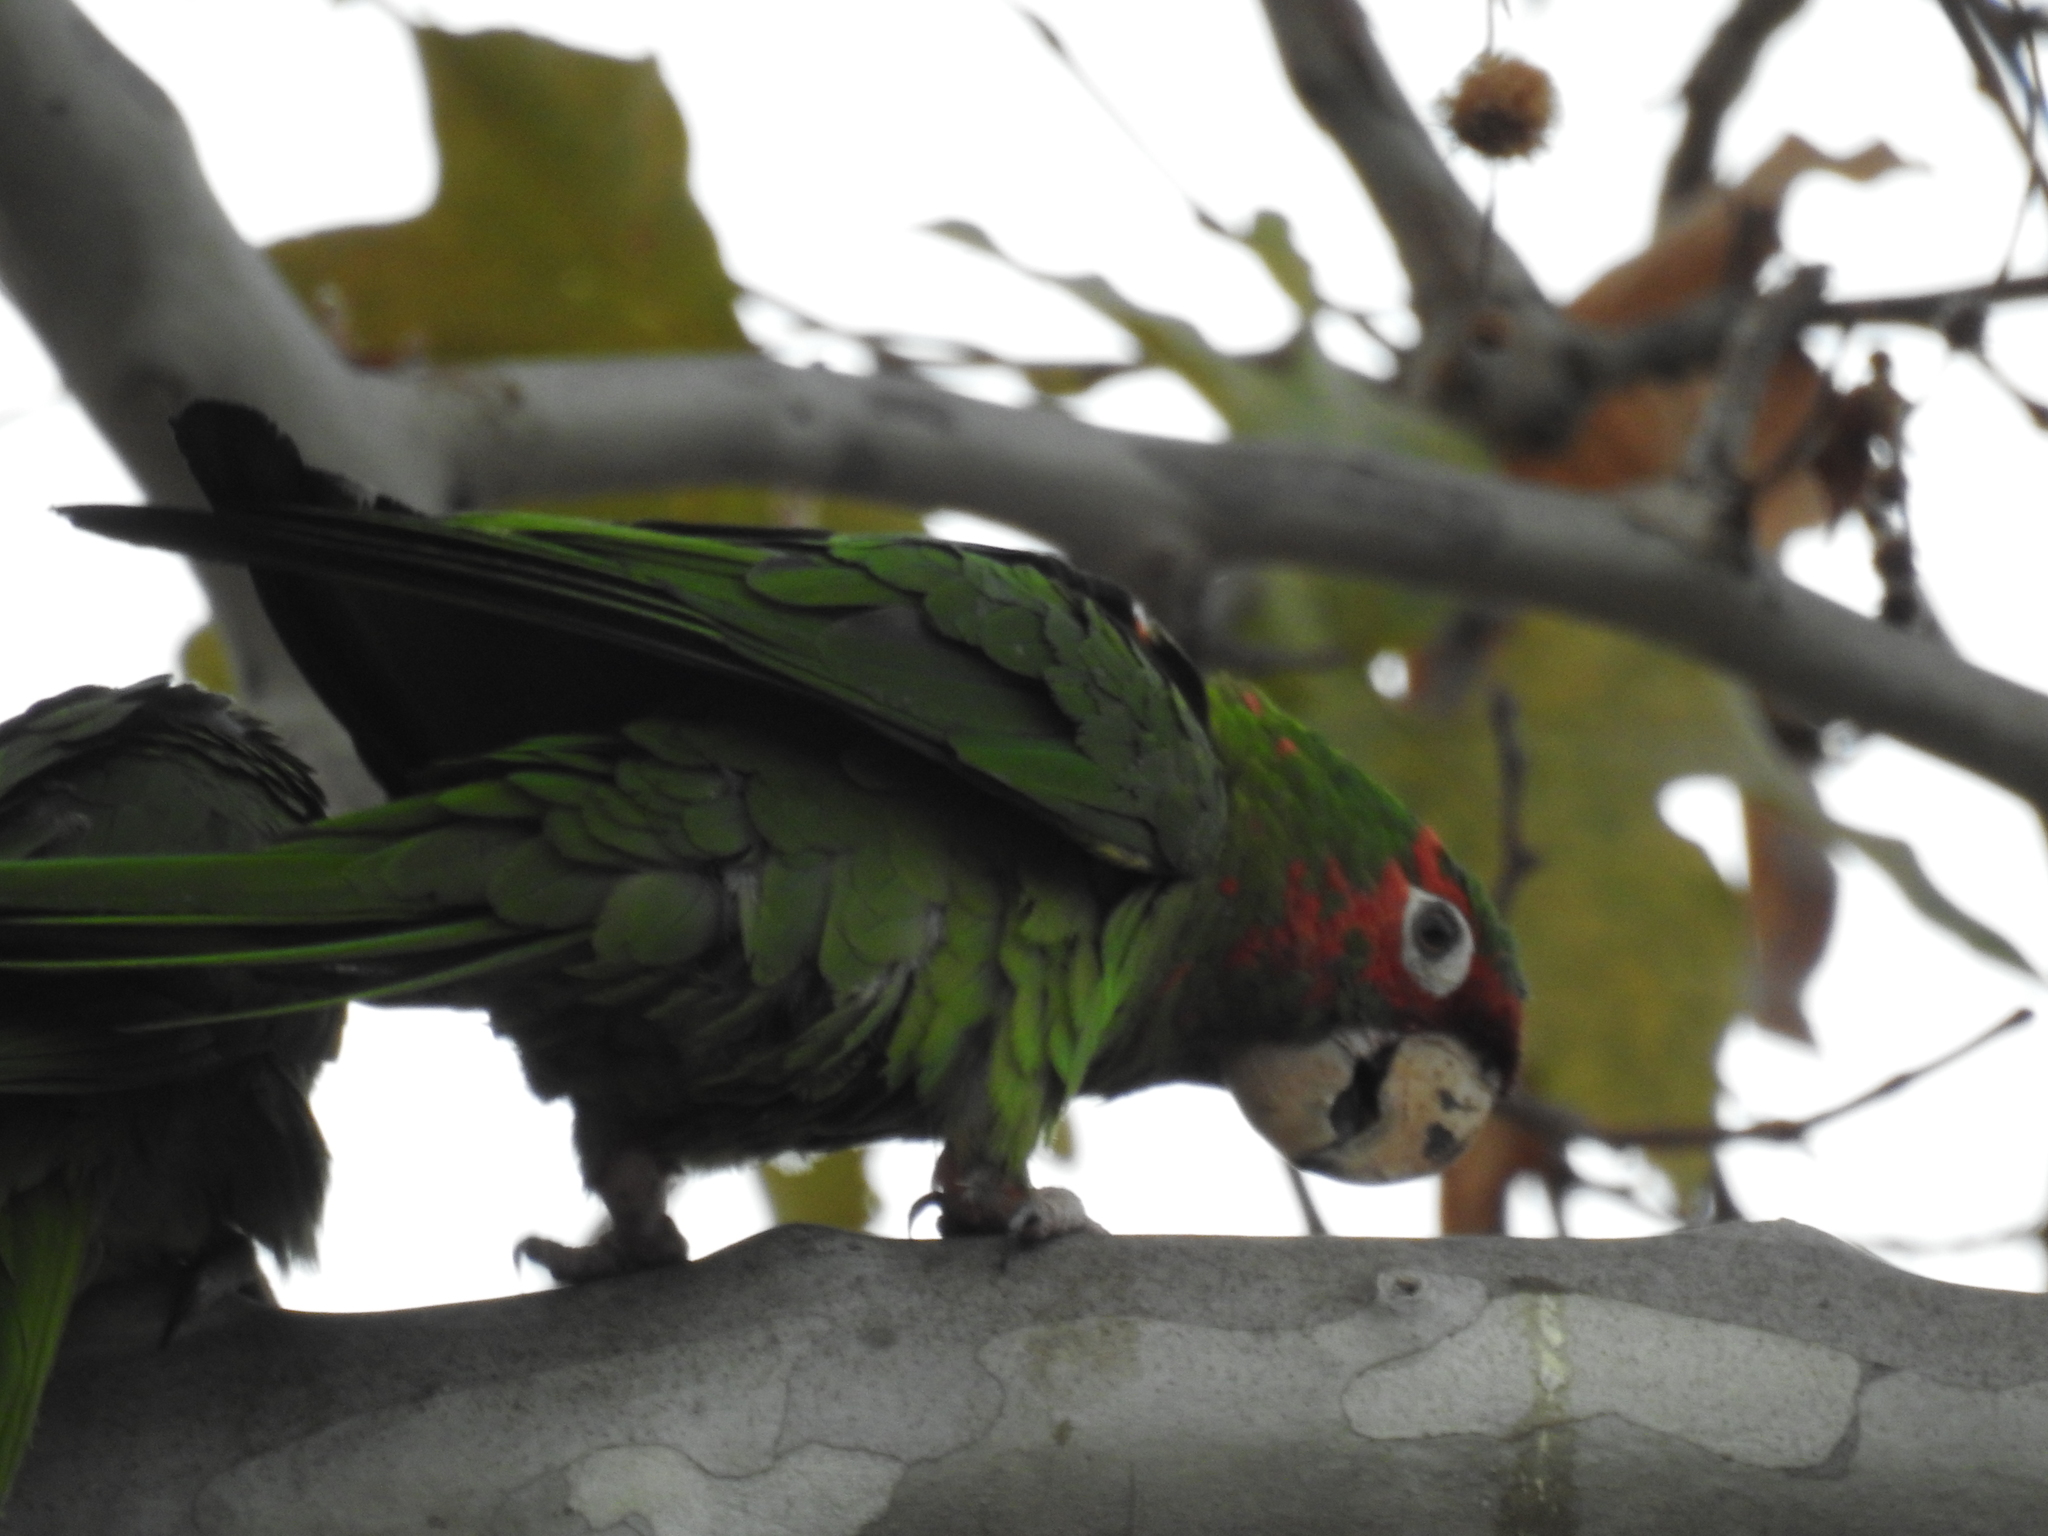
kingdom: Animalia
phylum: Chordata
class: Aves
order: Psittaciformes
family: Psittacidae
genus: Aratinga
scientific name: Aratinga mitrata
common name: Mitred parakeet
